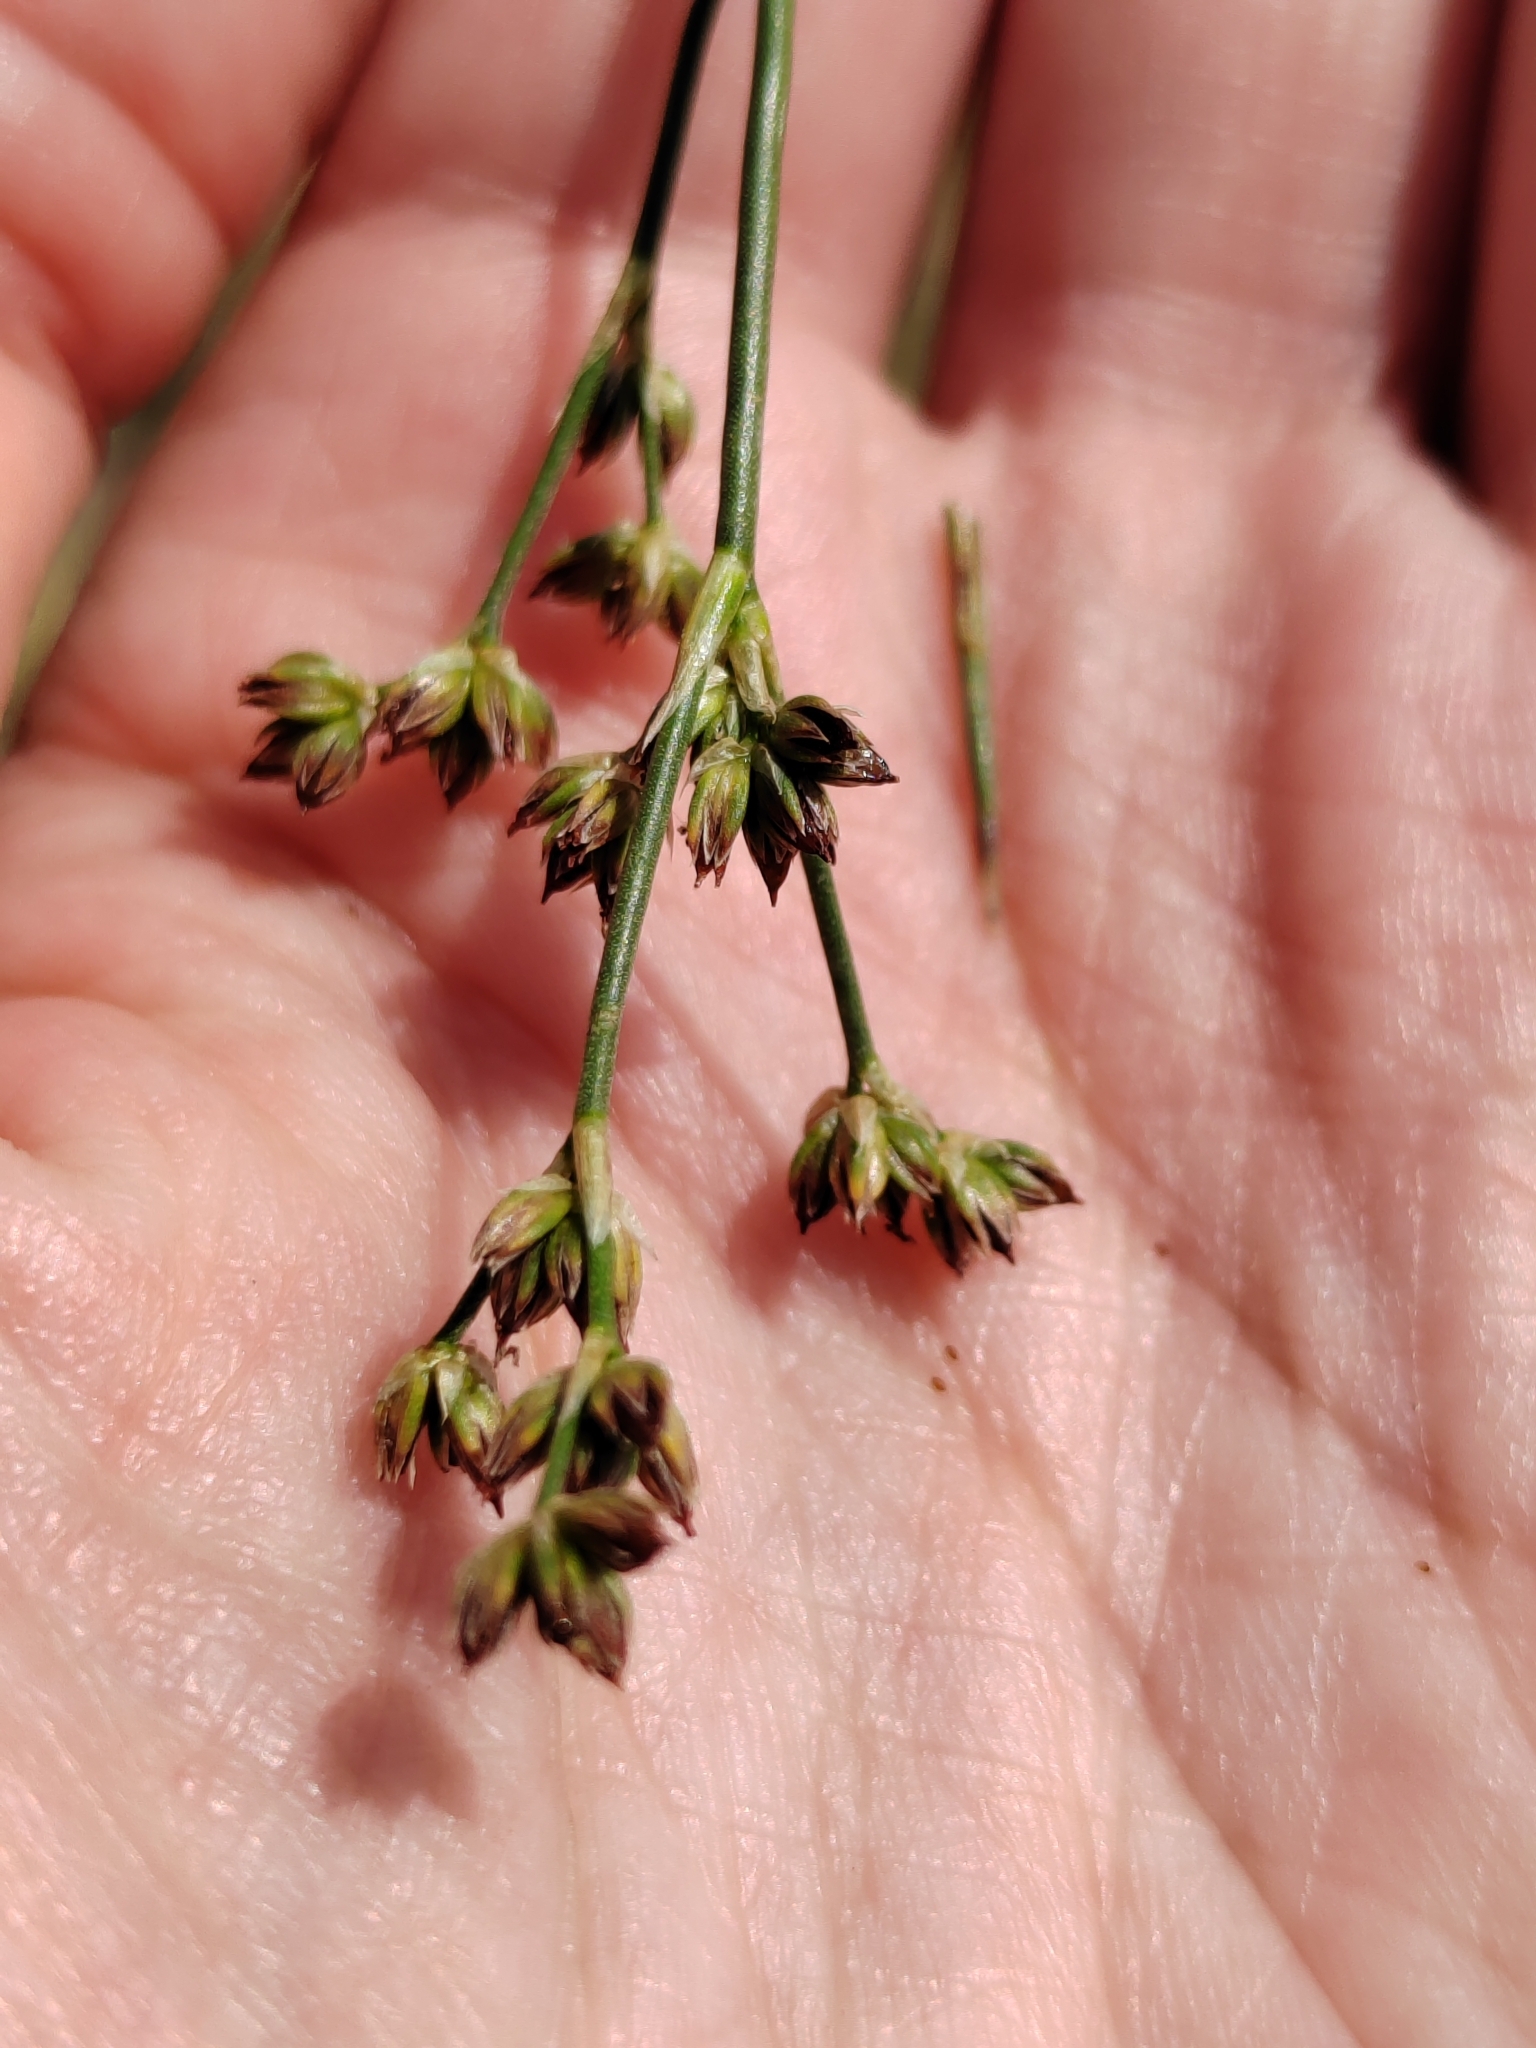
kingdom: Plantae
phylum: Tracheophyta
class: Liliopsida
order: Poales
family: Juncaceae
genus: Juncus
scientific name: Juncus articulatus
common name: Jointed rush
